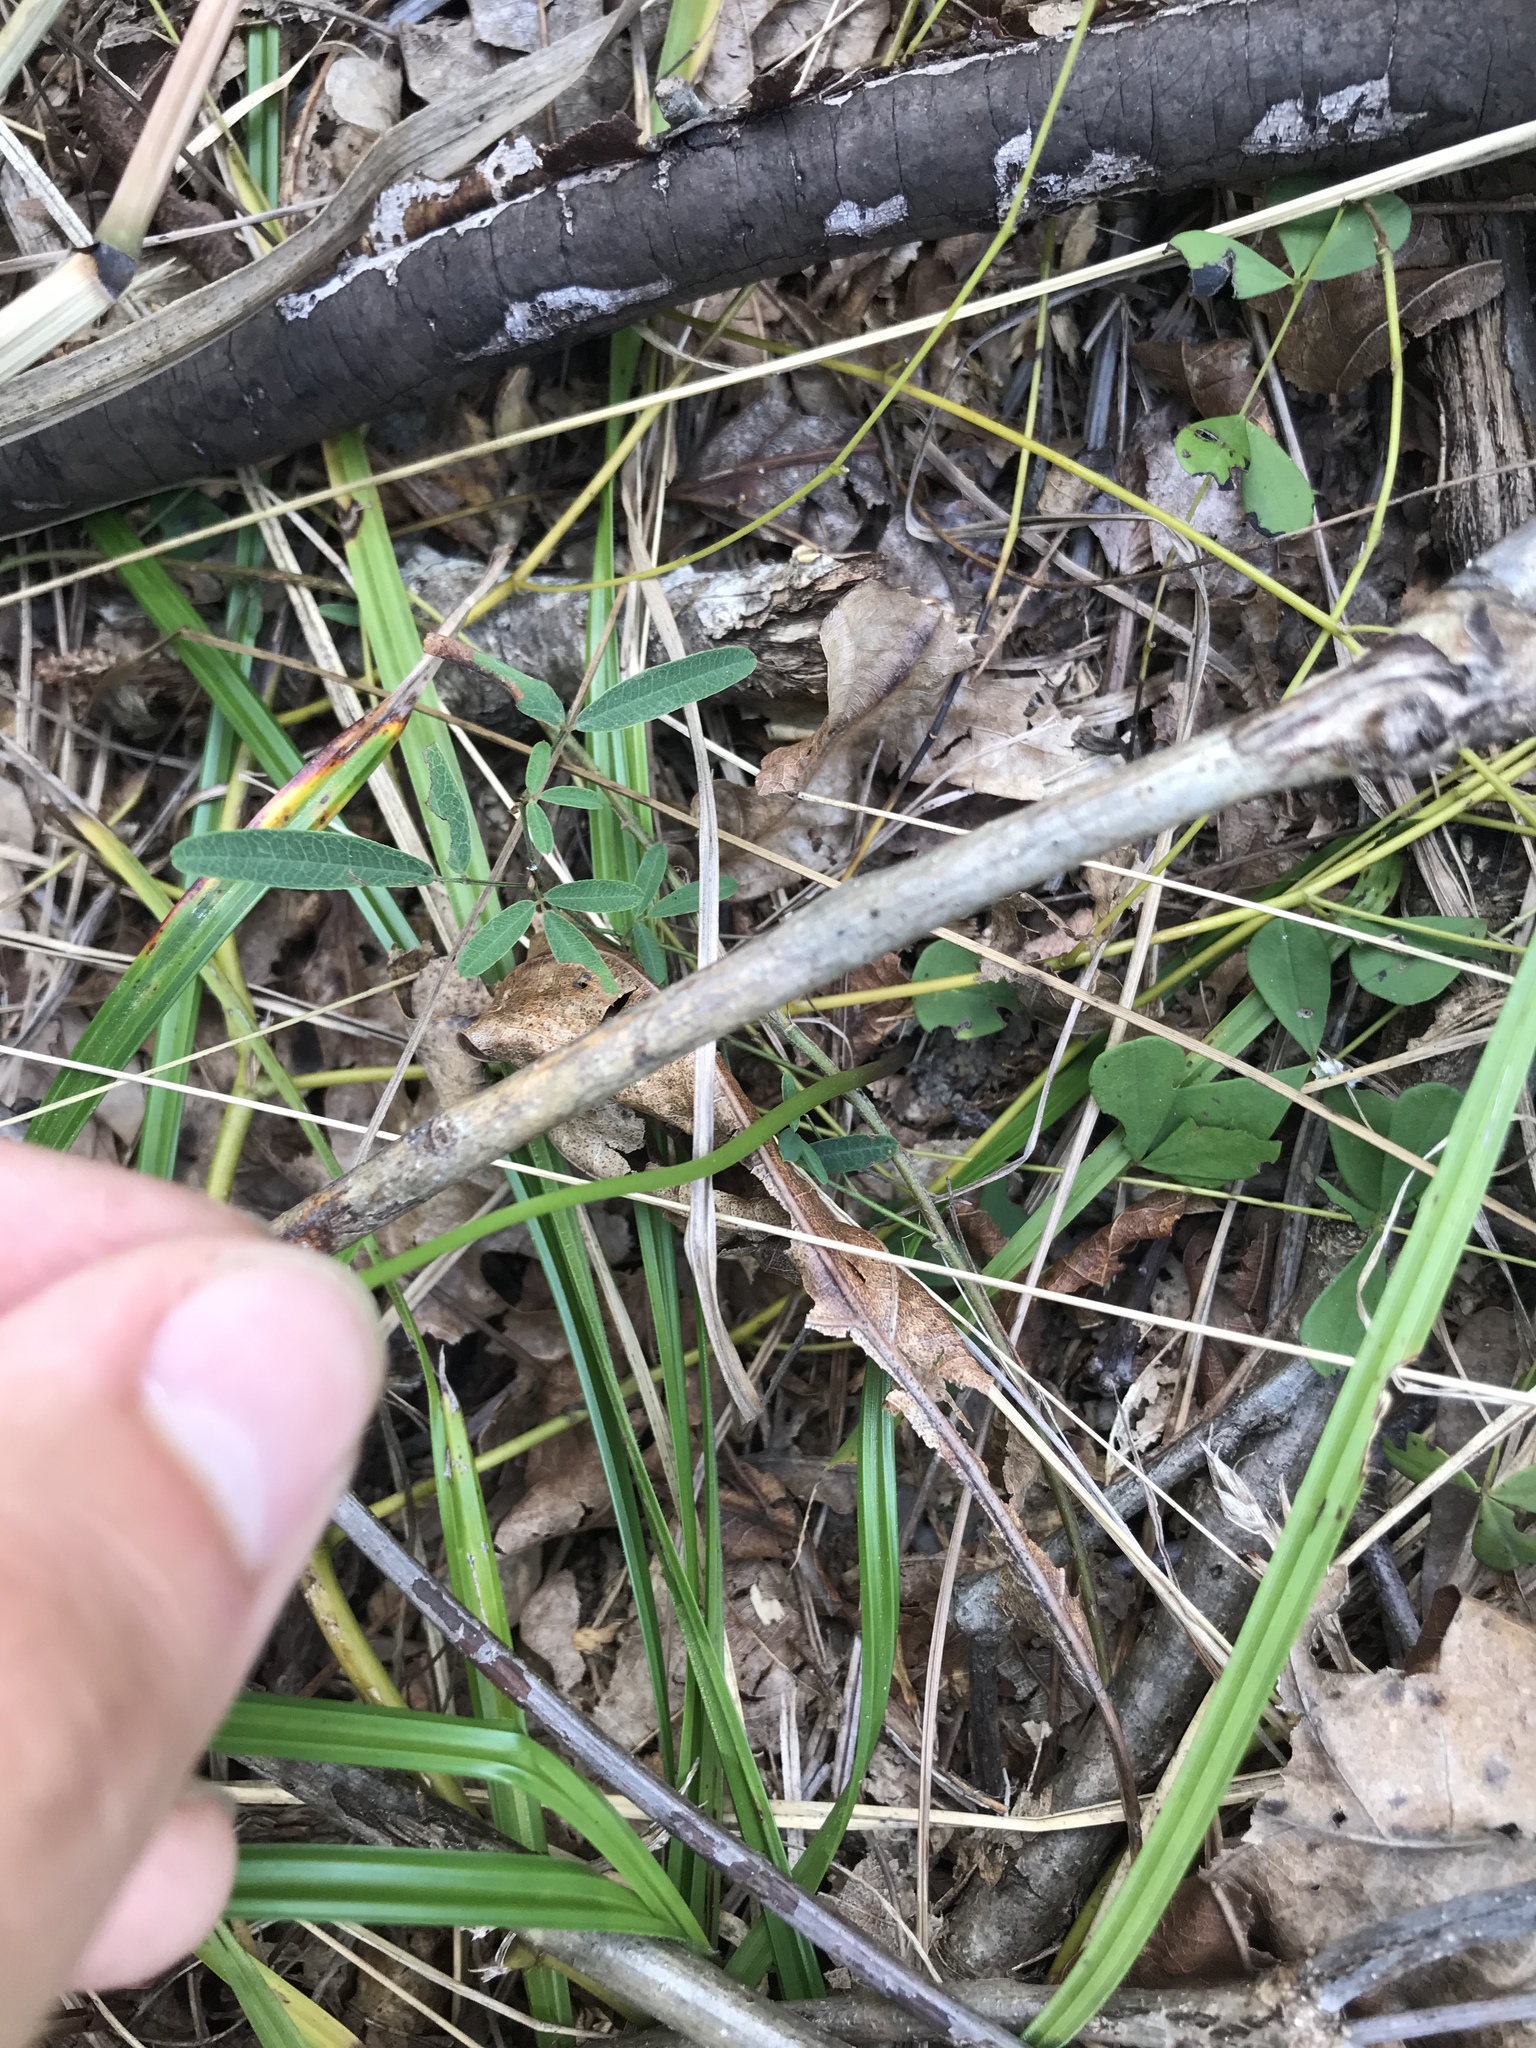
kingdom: Plantae
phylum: Tracheophyta
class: Magnoliopsida
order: Oxalidales
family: Oxalidaceae
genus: Oxalis
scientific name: Oxalis violacea
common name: Violet wood-sorrel
